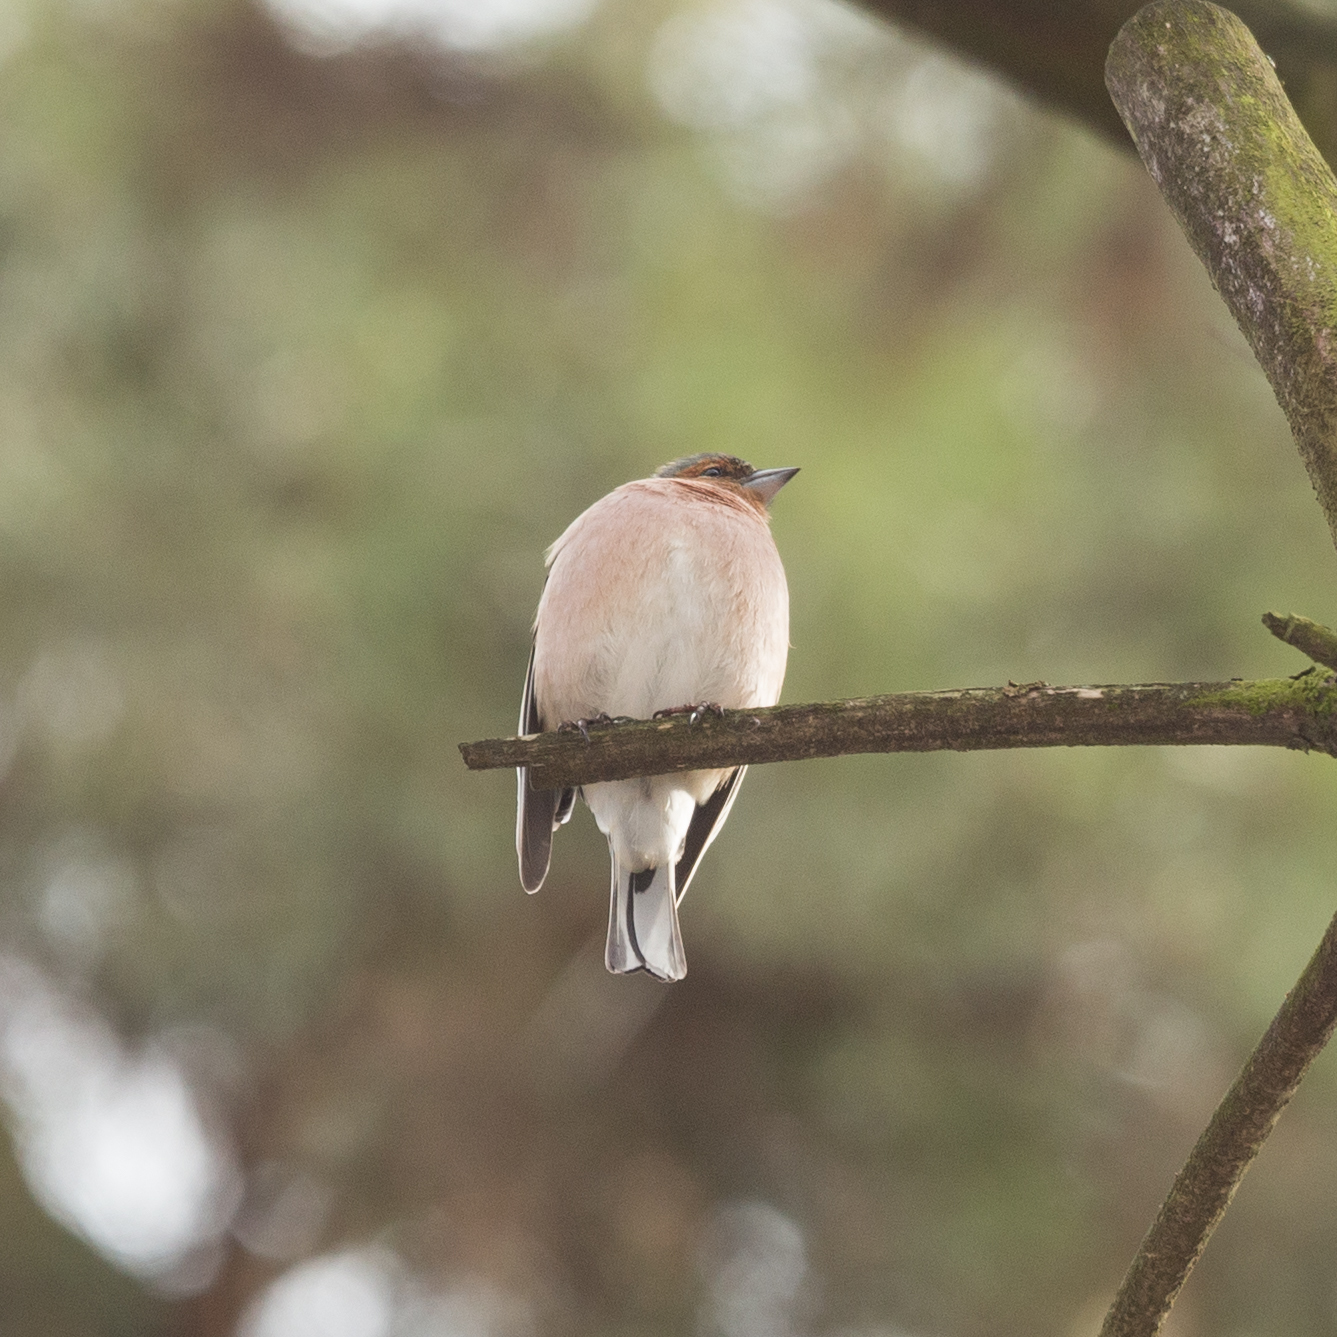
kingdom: Animalia
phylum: Chordata
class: Aves
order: Passeriformes
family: Fringillidae
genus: Fringilla
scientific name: Fringilla coelebs
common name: Common chaffinch
